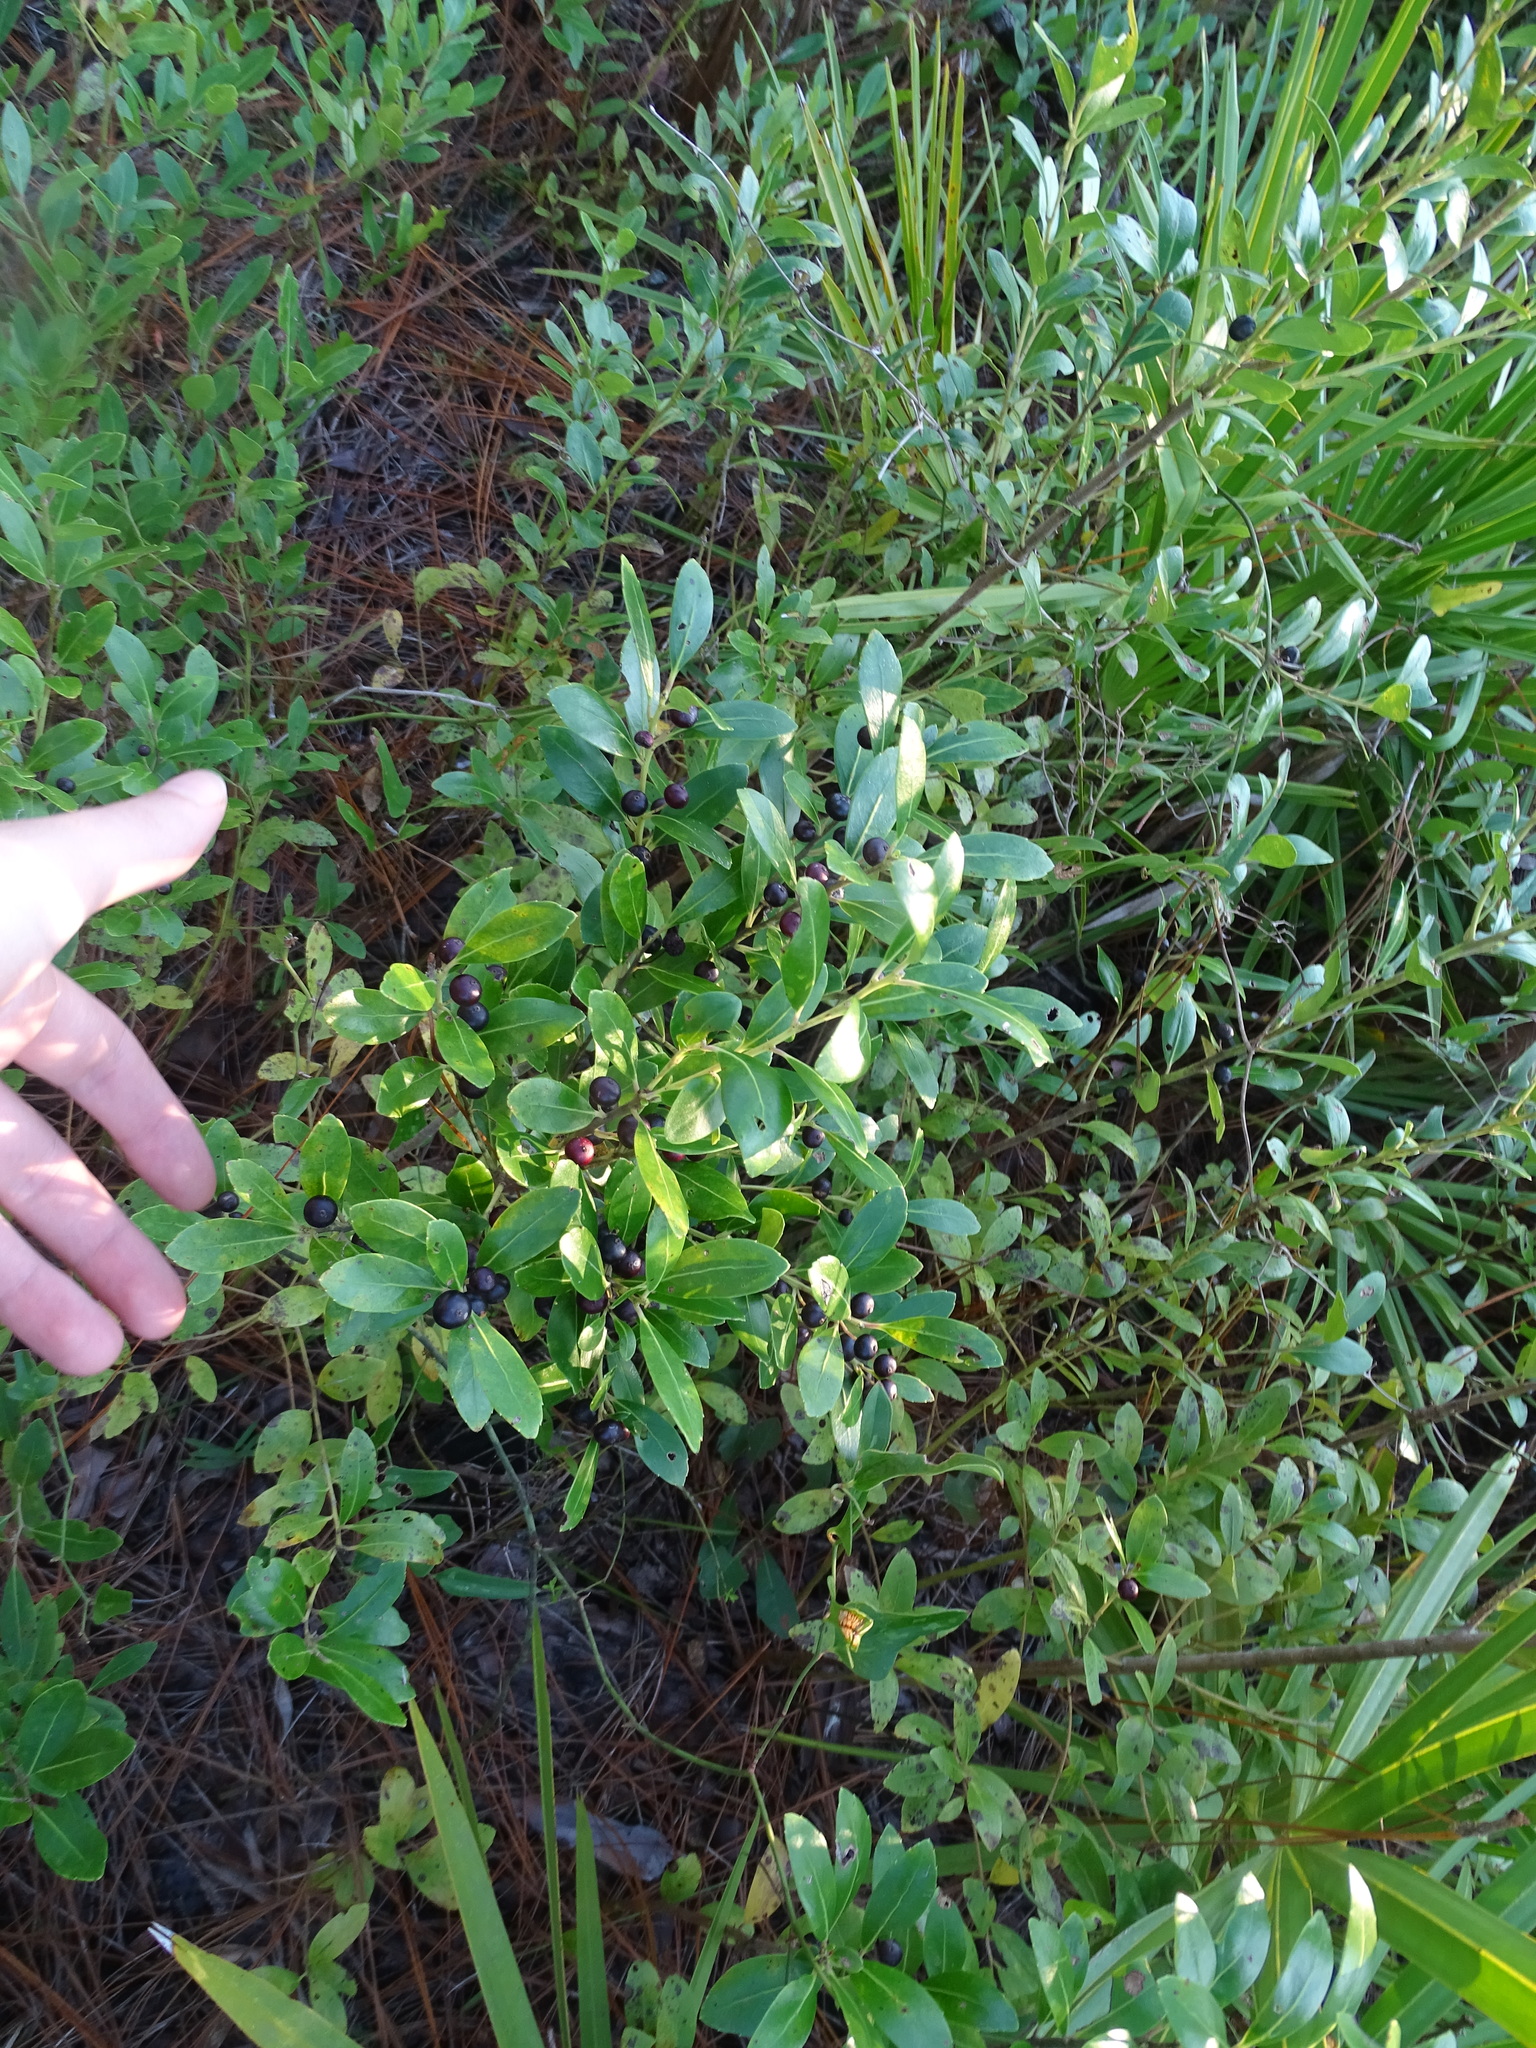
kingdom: Plantae
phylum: Tracheophyta
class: Magnoliopsida
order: Aquifoliales
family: Aquifoliaceae
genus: Ilex
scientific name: Ilex glabra
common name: Bitter gallberry
